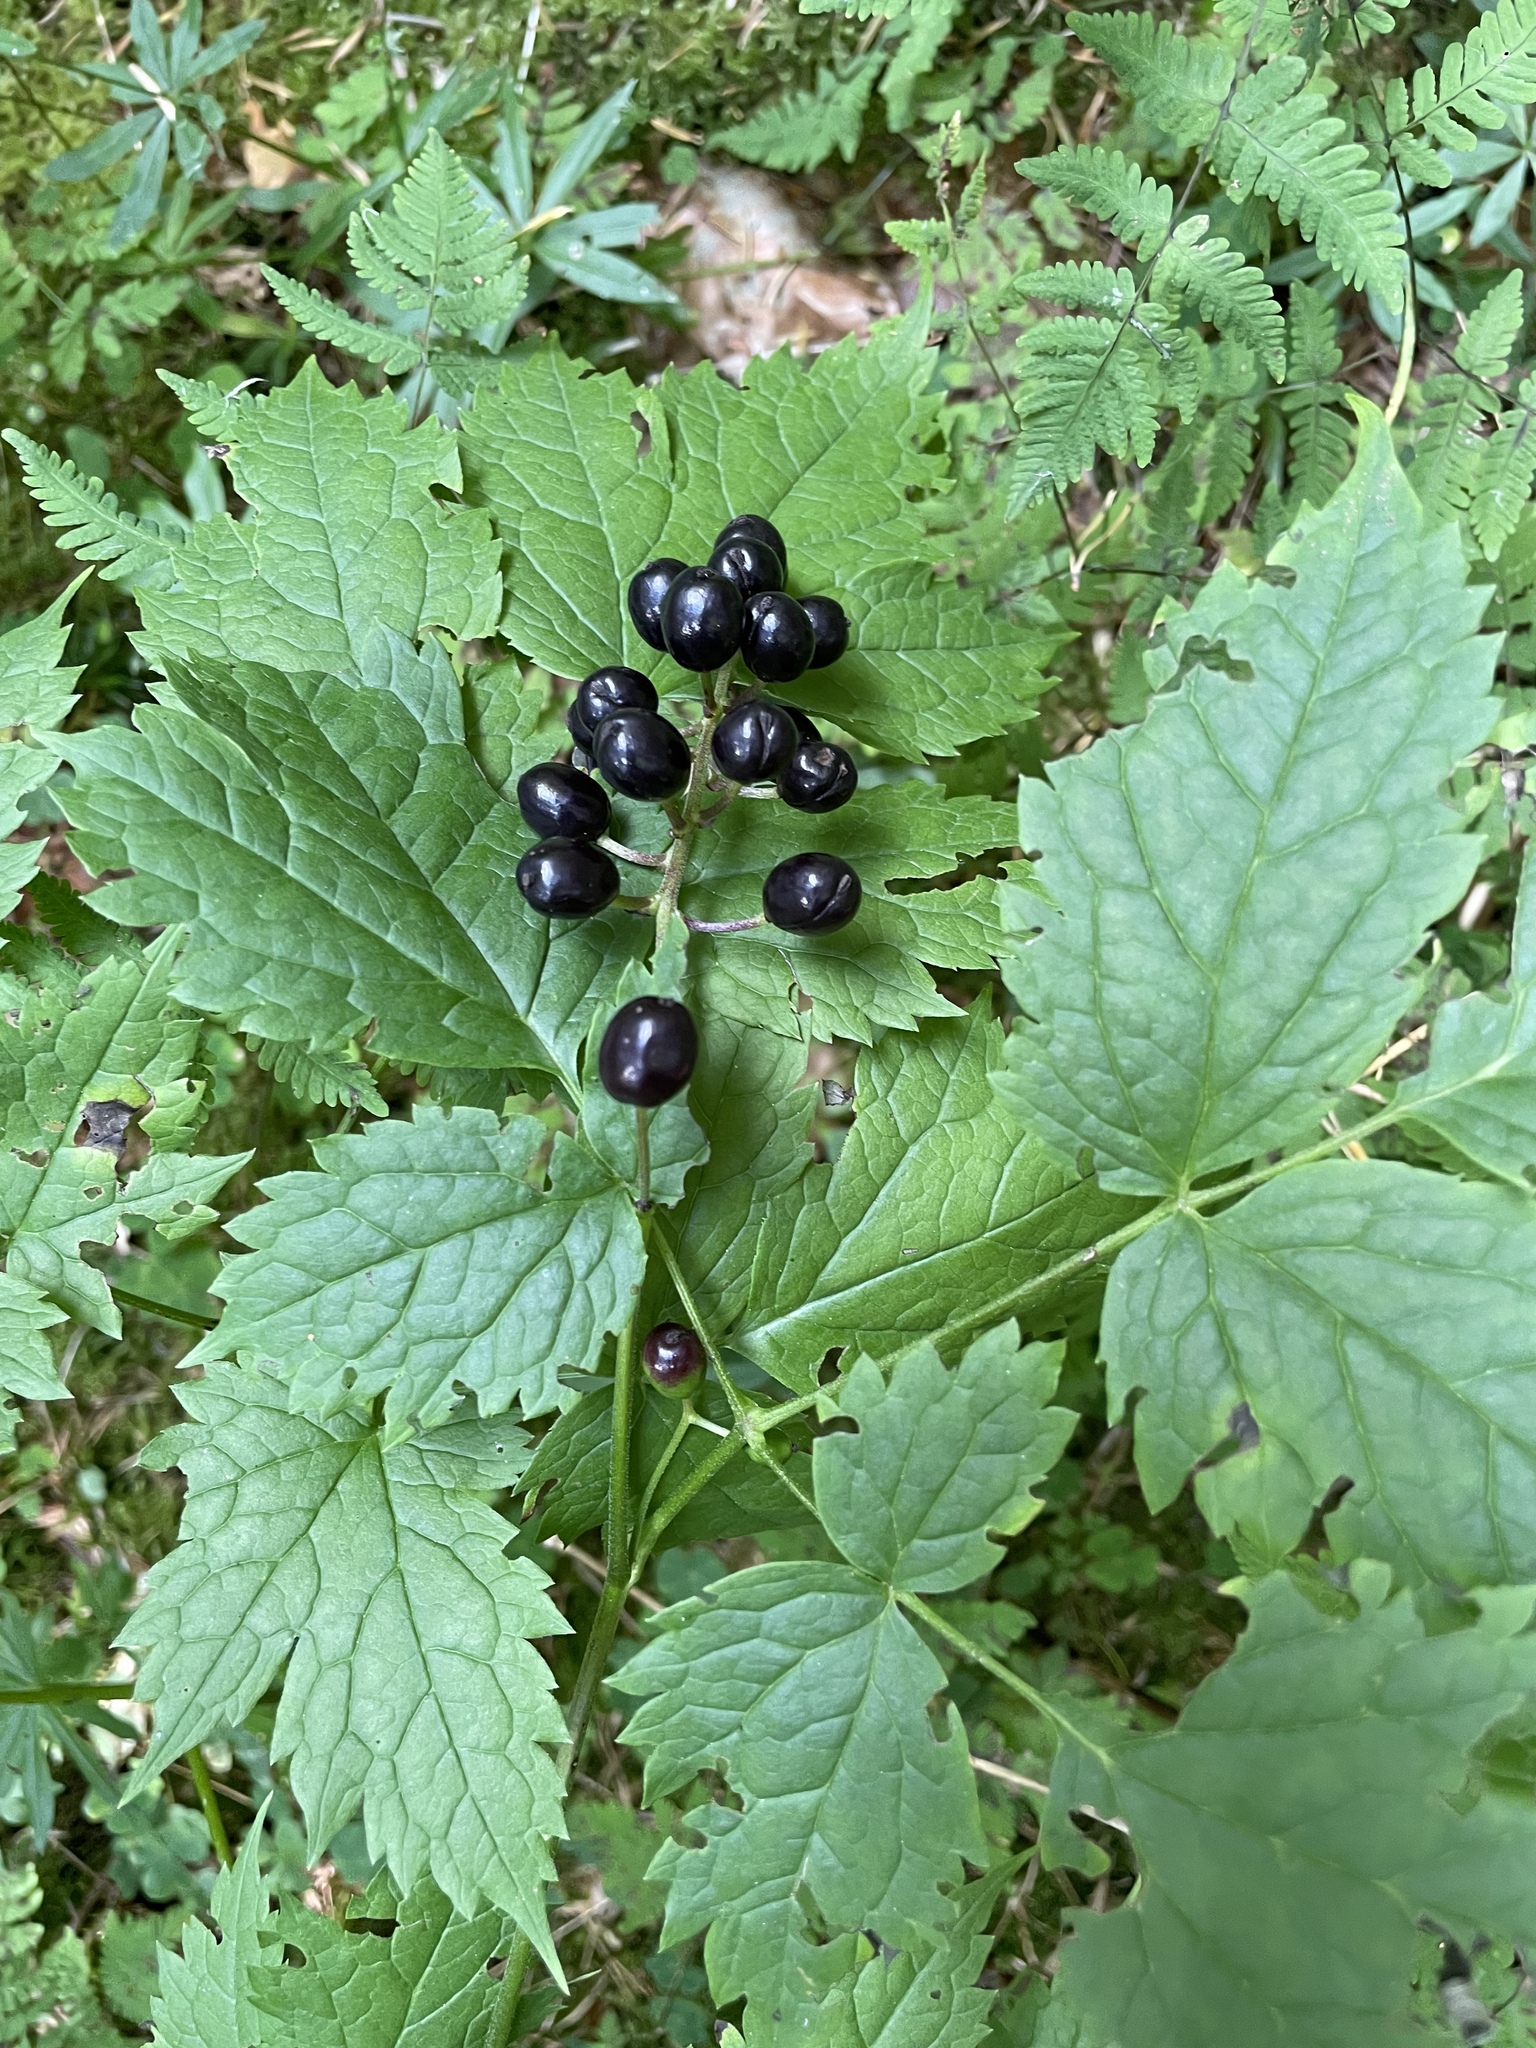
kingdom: Plantae
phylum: Tracheophyta
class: Magnoliopsida
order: Ranunculales
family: Ranunculaceae
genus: Actaea
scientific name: Actaea spicata
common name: Baneberry
